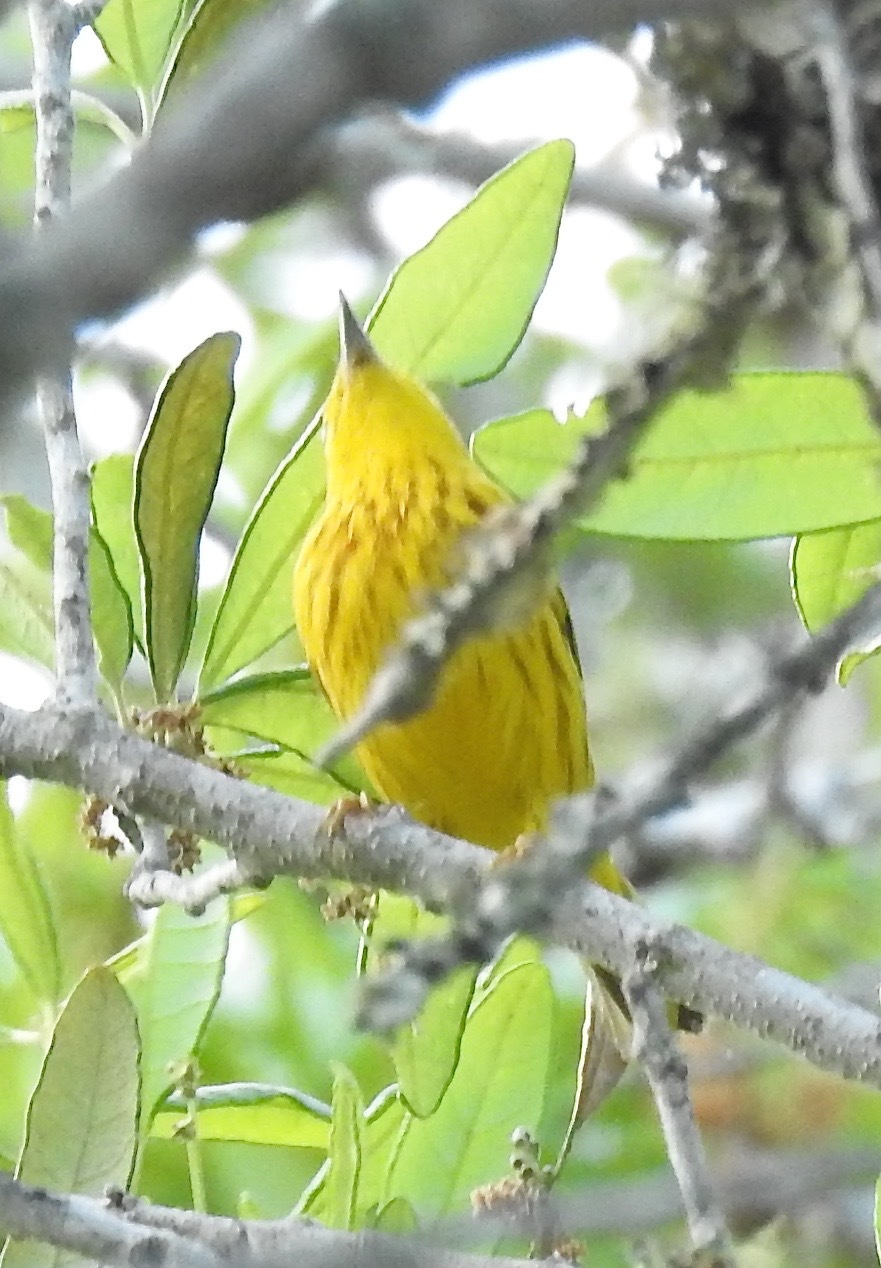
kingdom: Animalia
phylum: Chordata
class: Aves
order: Passeriformes
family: Parulidae
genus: Setophaga
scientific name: Setophaga petechia
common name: Yellow warbler
